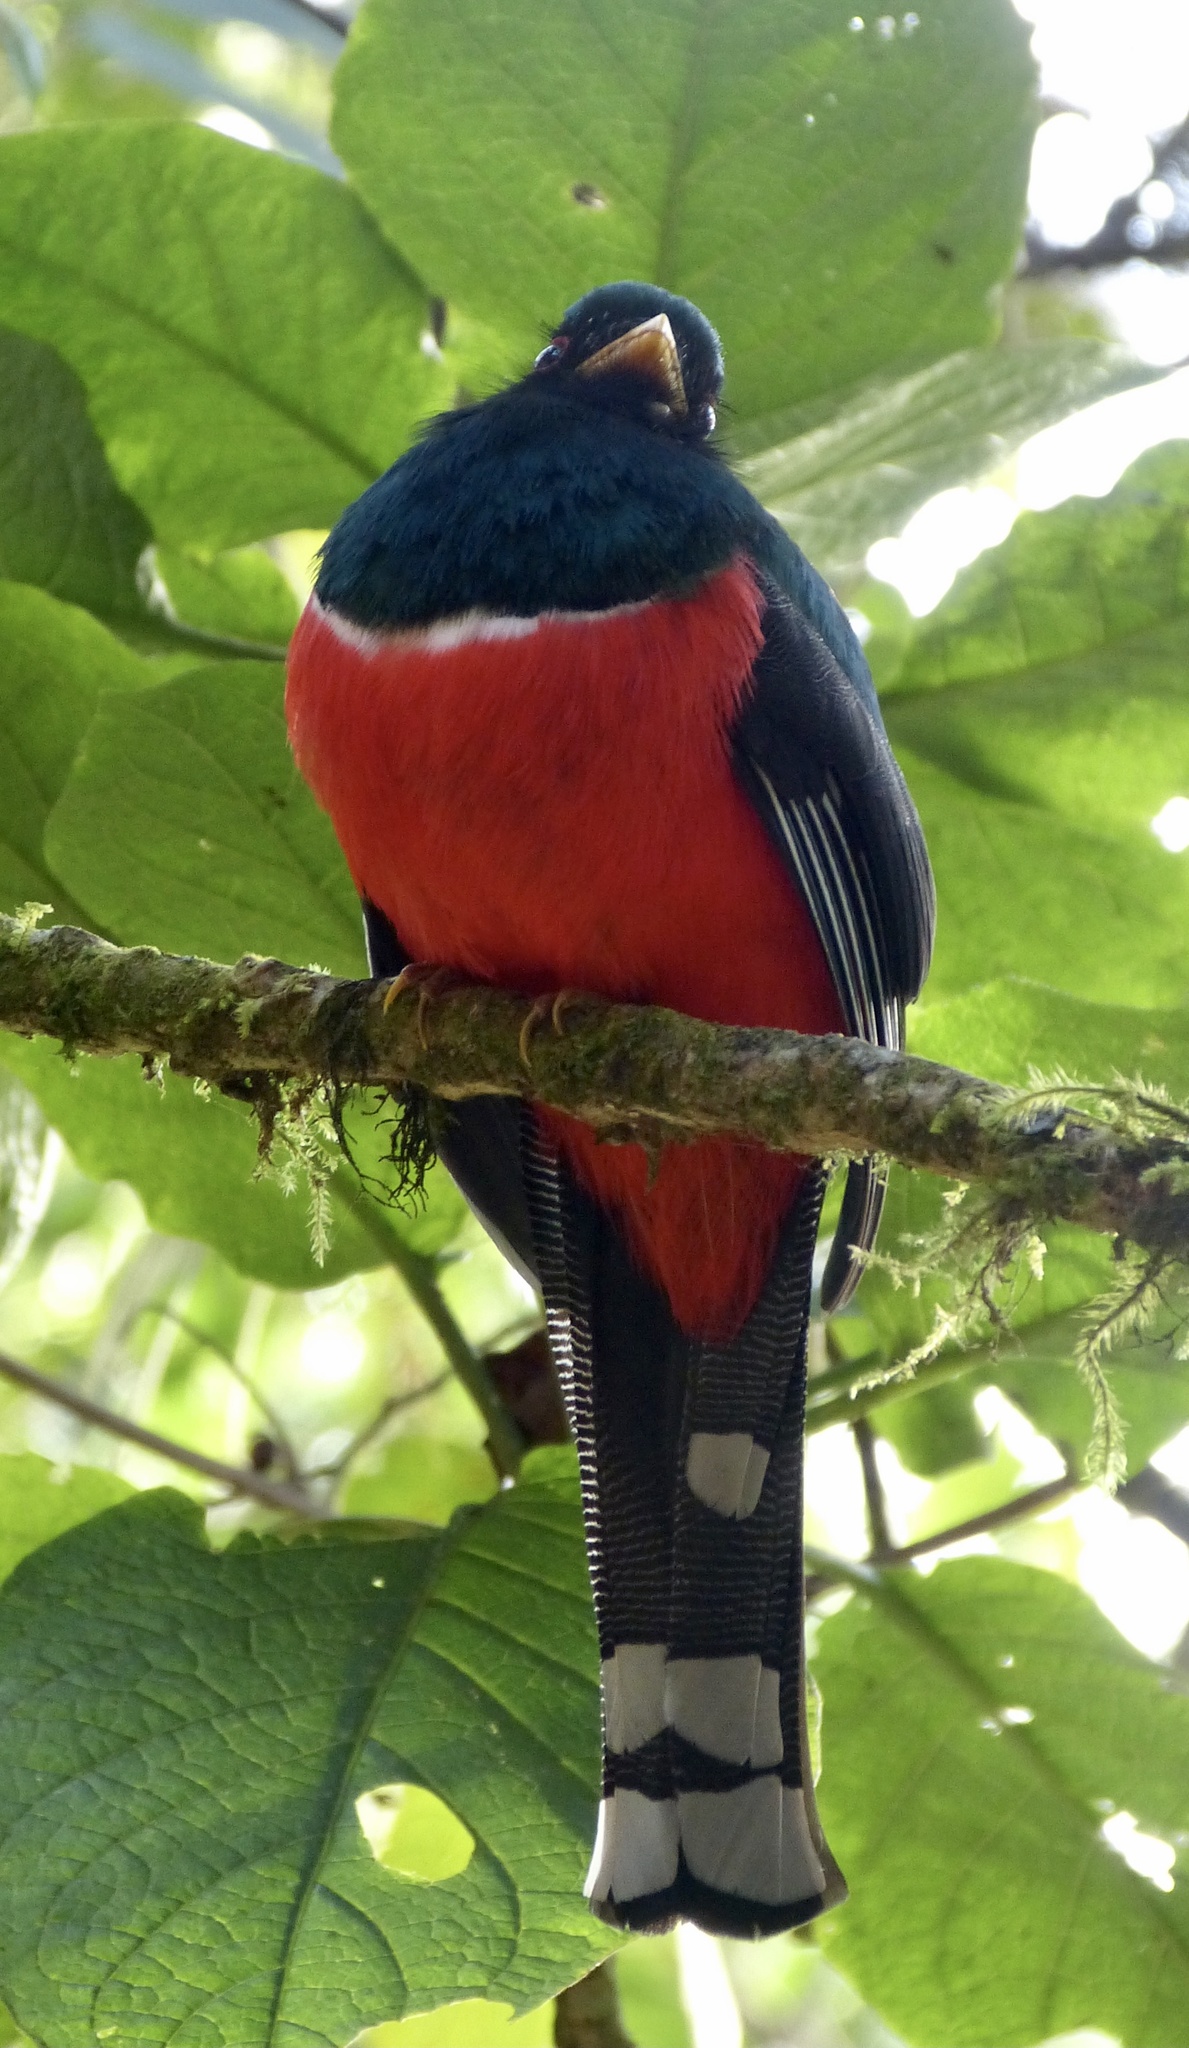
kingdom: Animalia
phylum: Chordata
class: Aves
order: Trogoniformes
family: Trogonidae
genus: Trogon
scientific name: Trogon personatus
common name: Masked trogon
